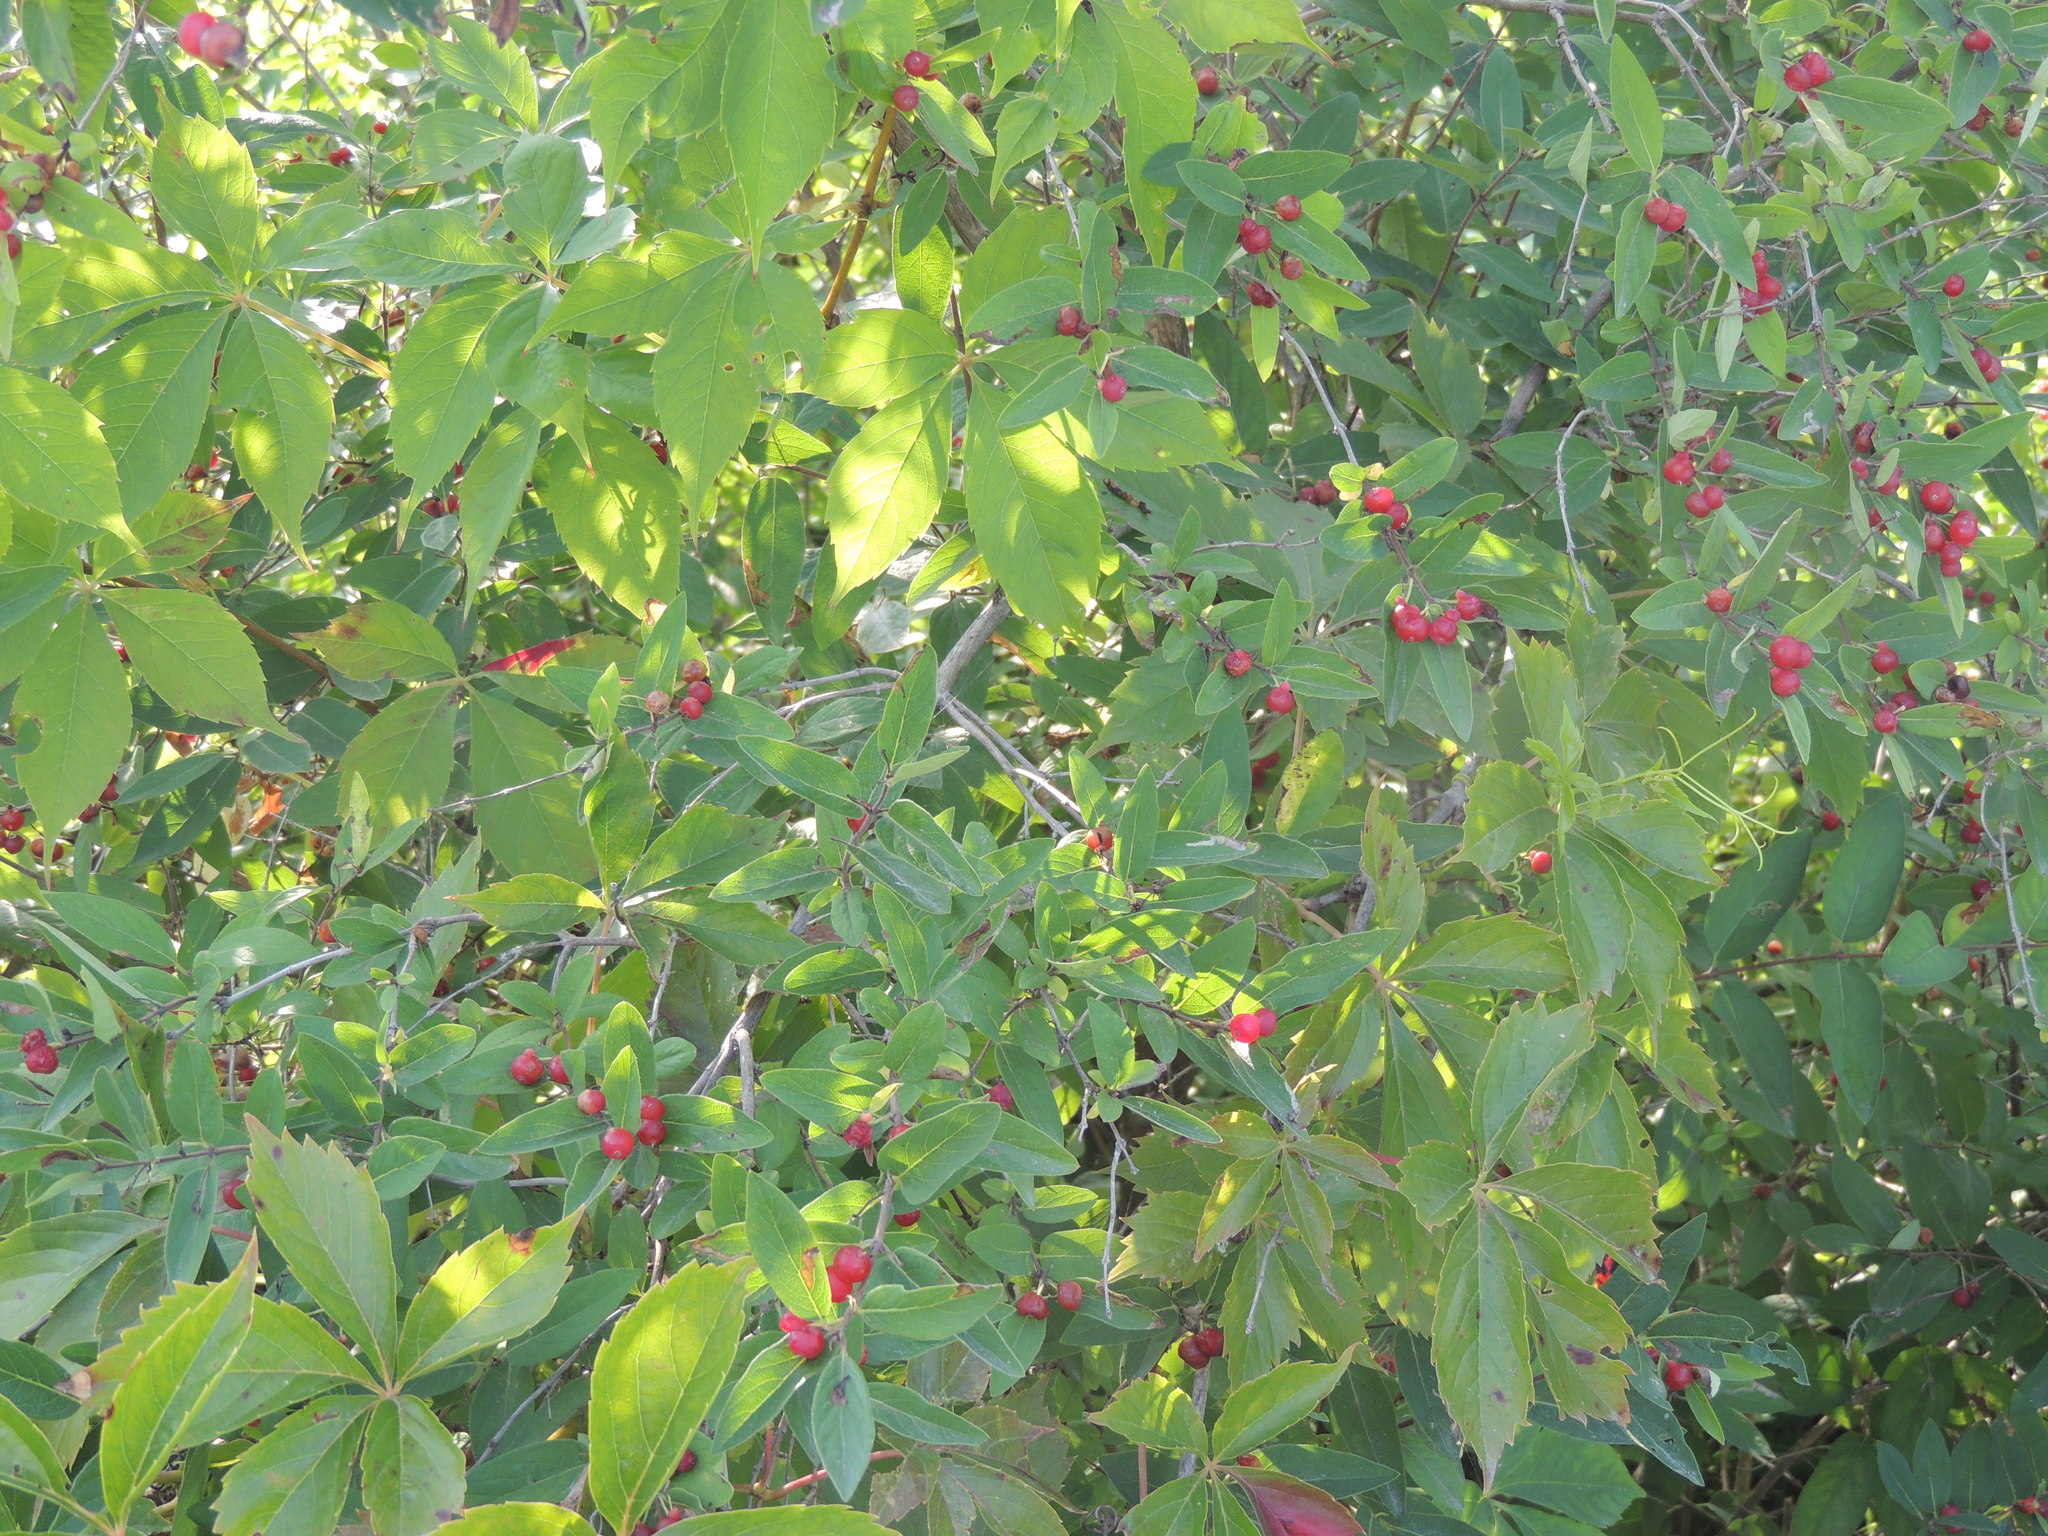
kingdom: Plantae
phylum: Tracheophyta
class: Magnoliopsida
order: Dipsacales
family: Caprifoliaceae
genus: Lonicera
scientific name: Lonicera
